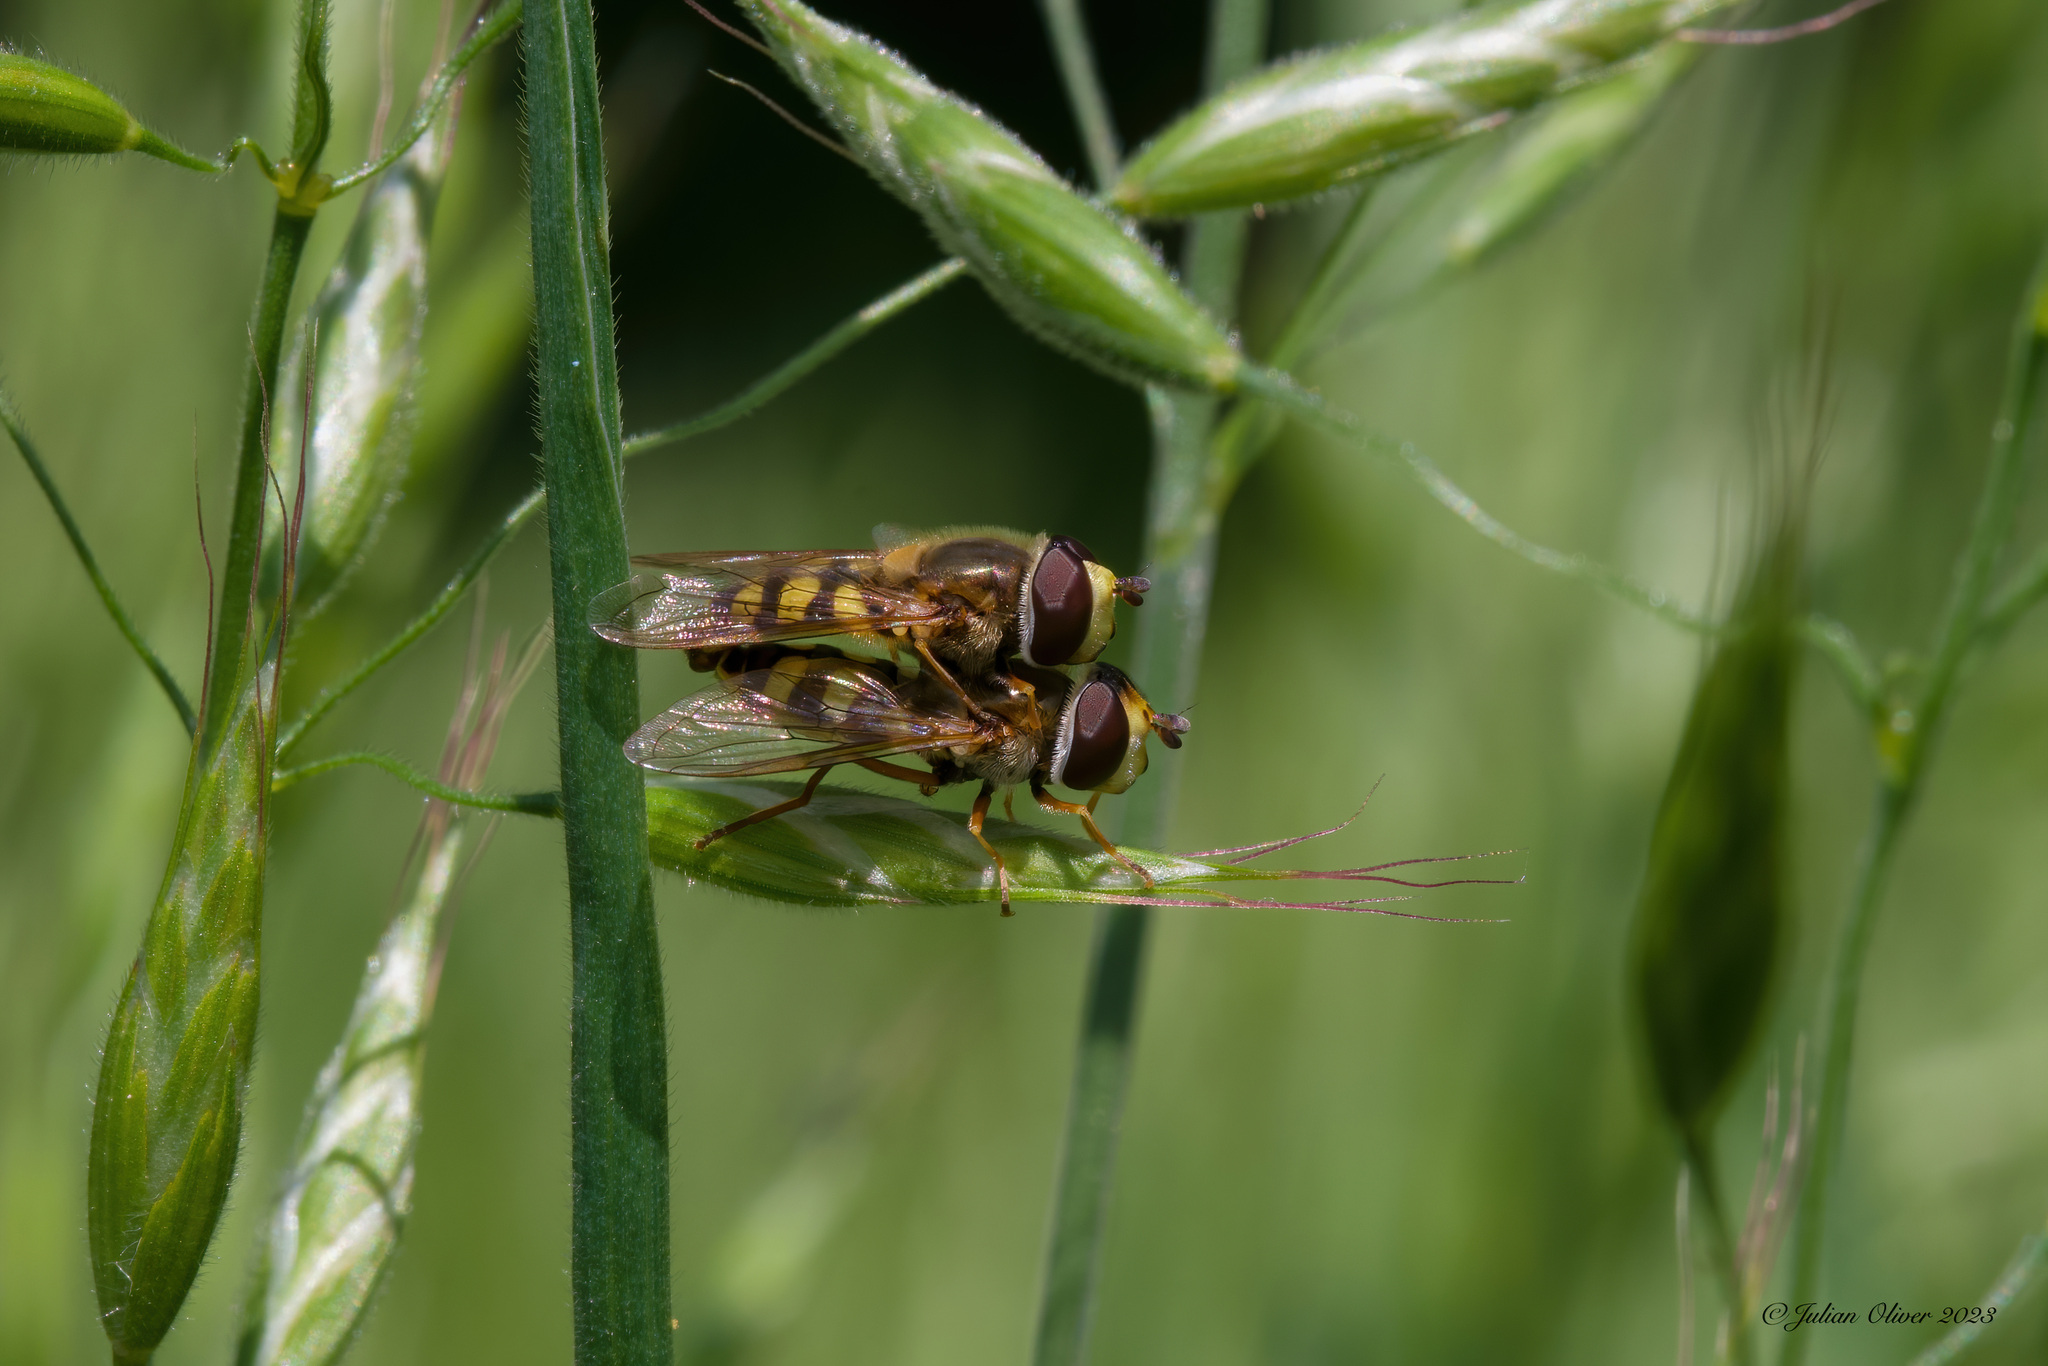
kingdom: Animalia
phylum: Arthropoda
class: Insecta
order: Diptera
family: Syrphidae
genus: Eupeodes
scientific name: Eupeodes corollae
